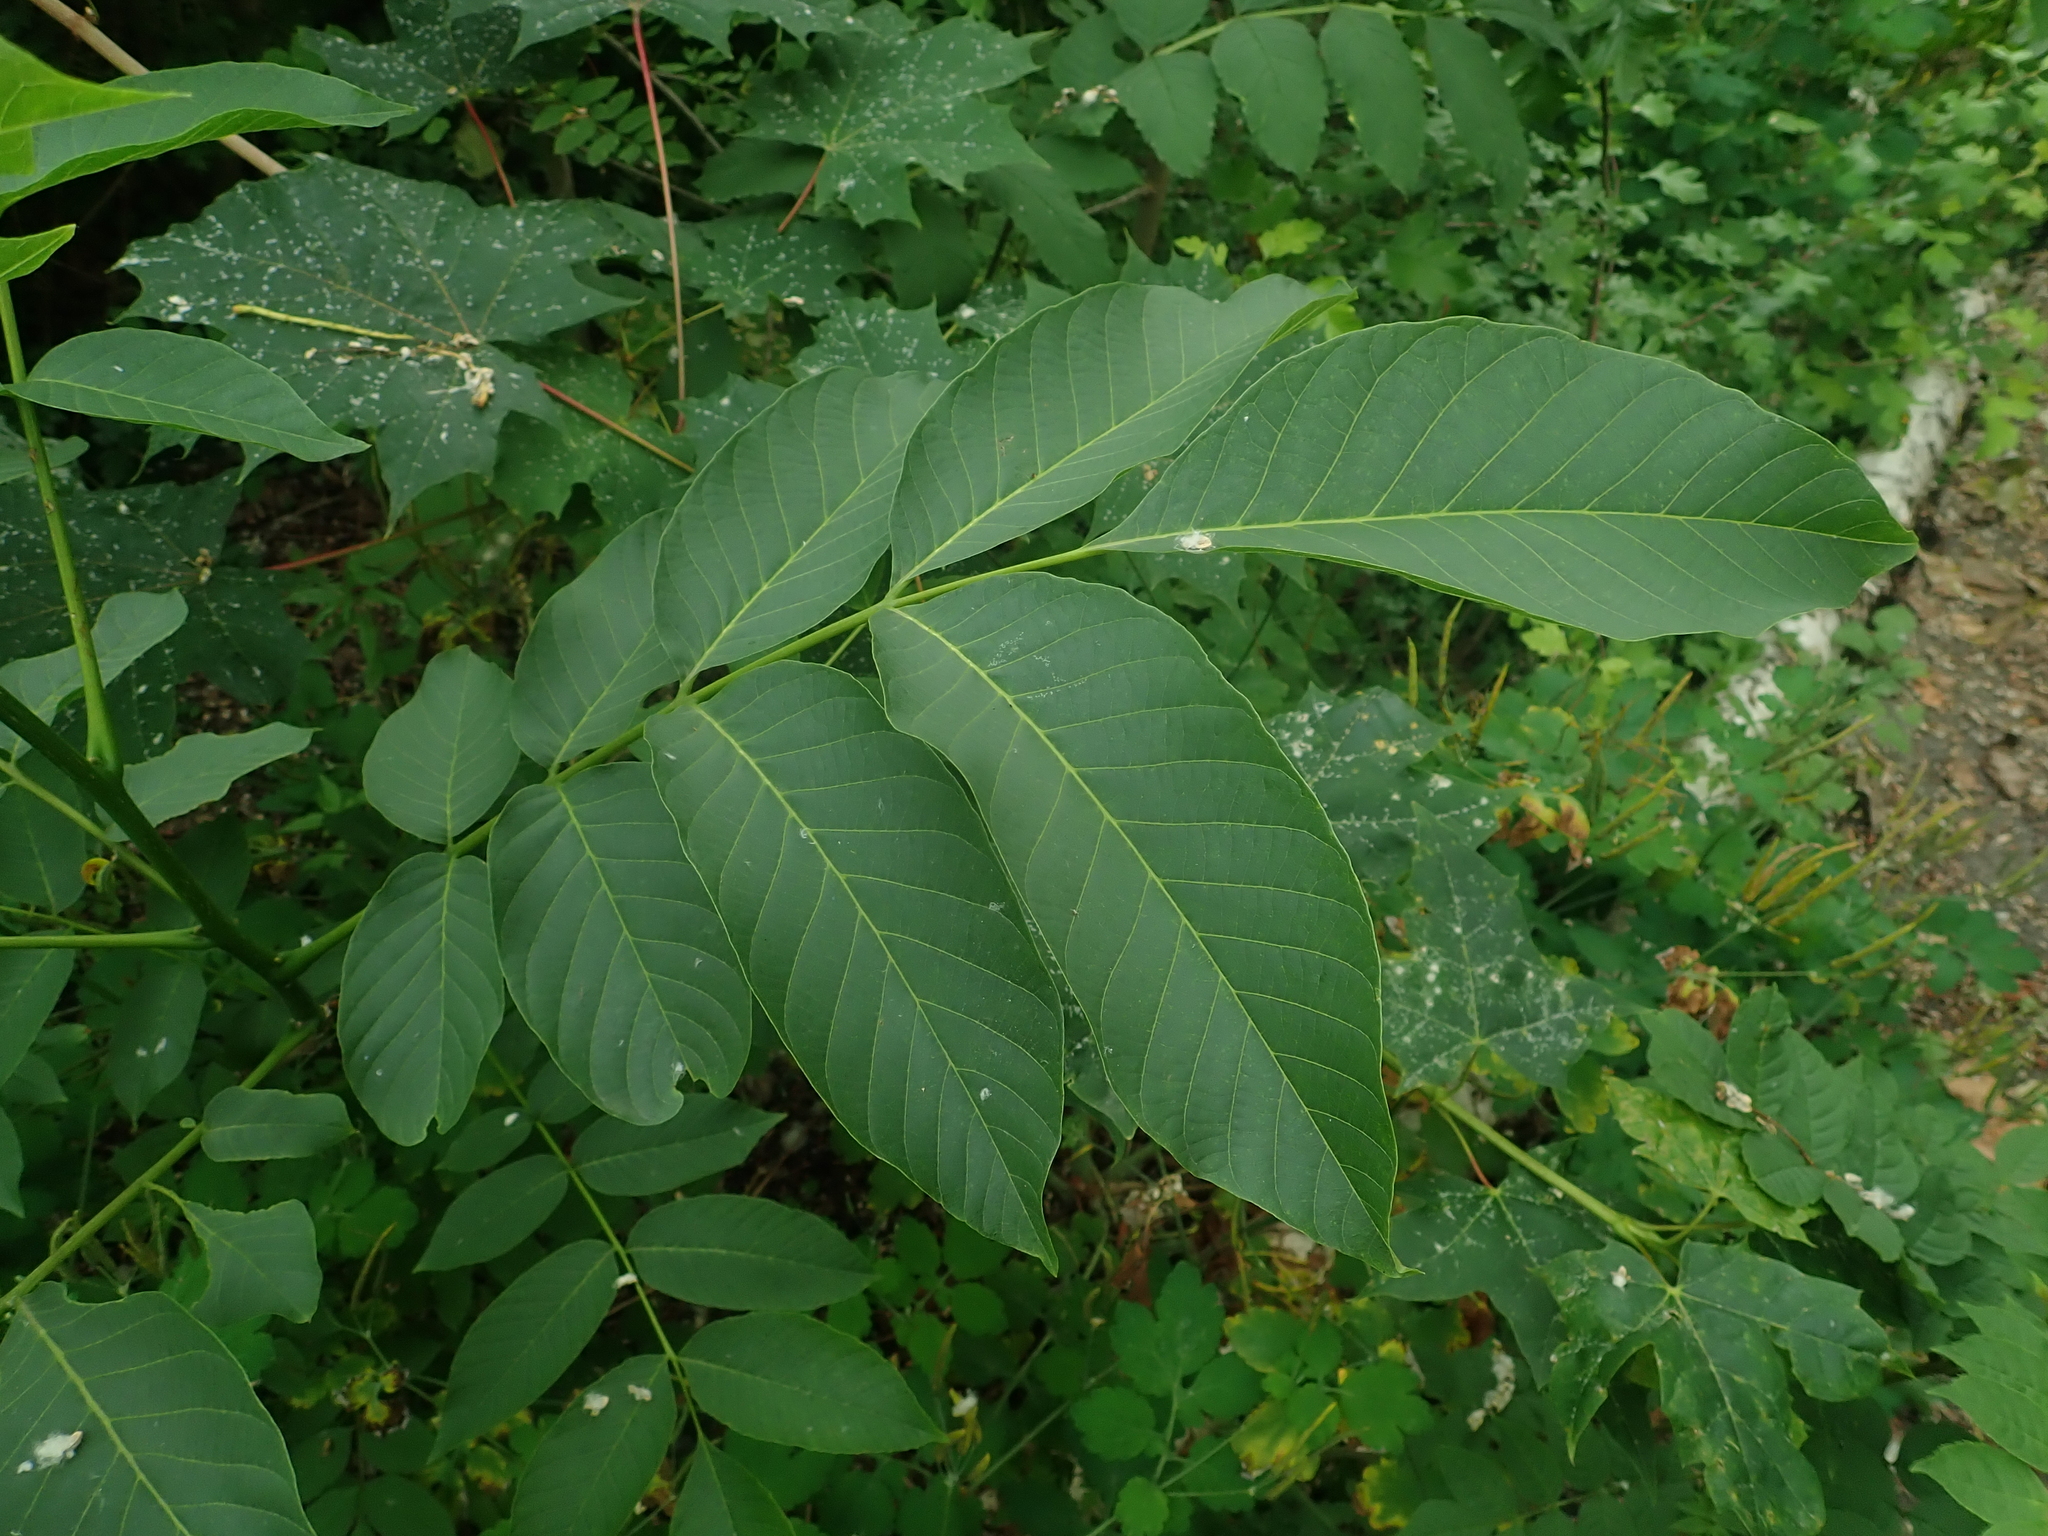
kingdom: Plantae
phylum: Tracheophyta
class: Magnoliopsida
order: Fagales
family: Juglandaceae
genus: Juglans
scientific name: Juglans regia
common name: Walnut
